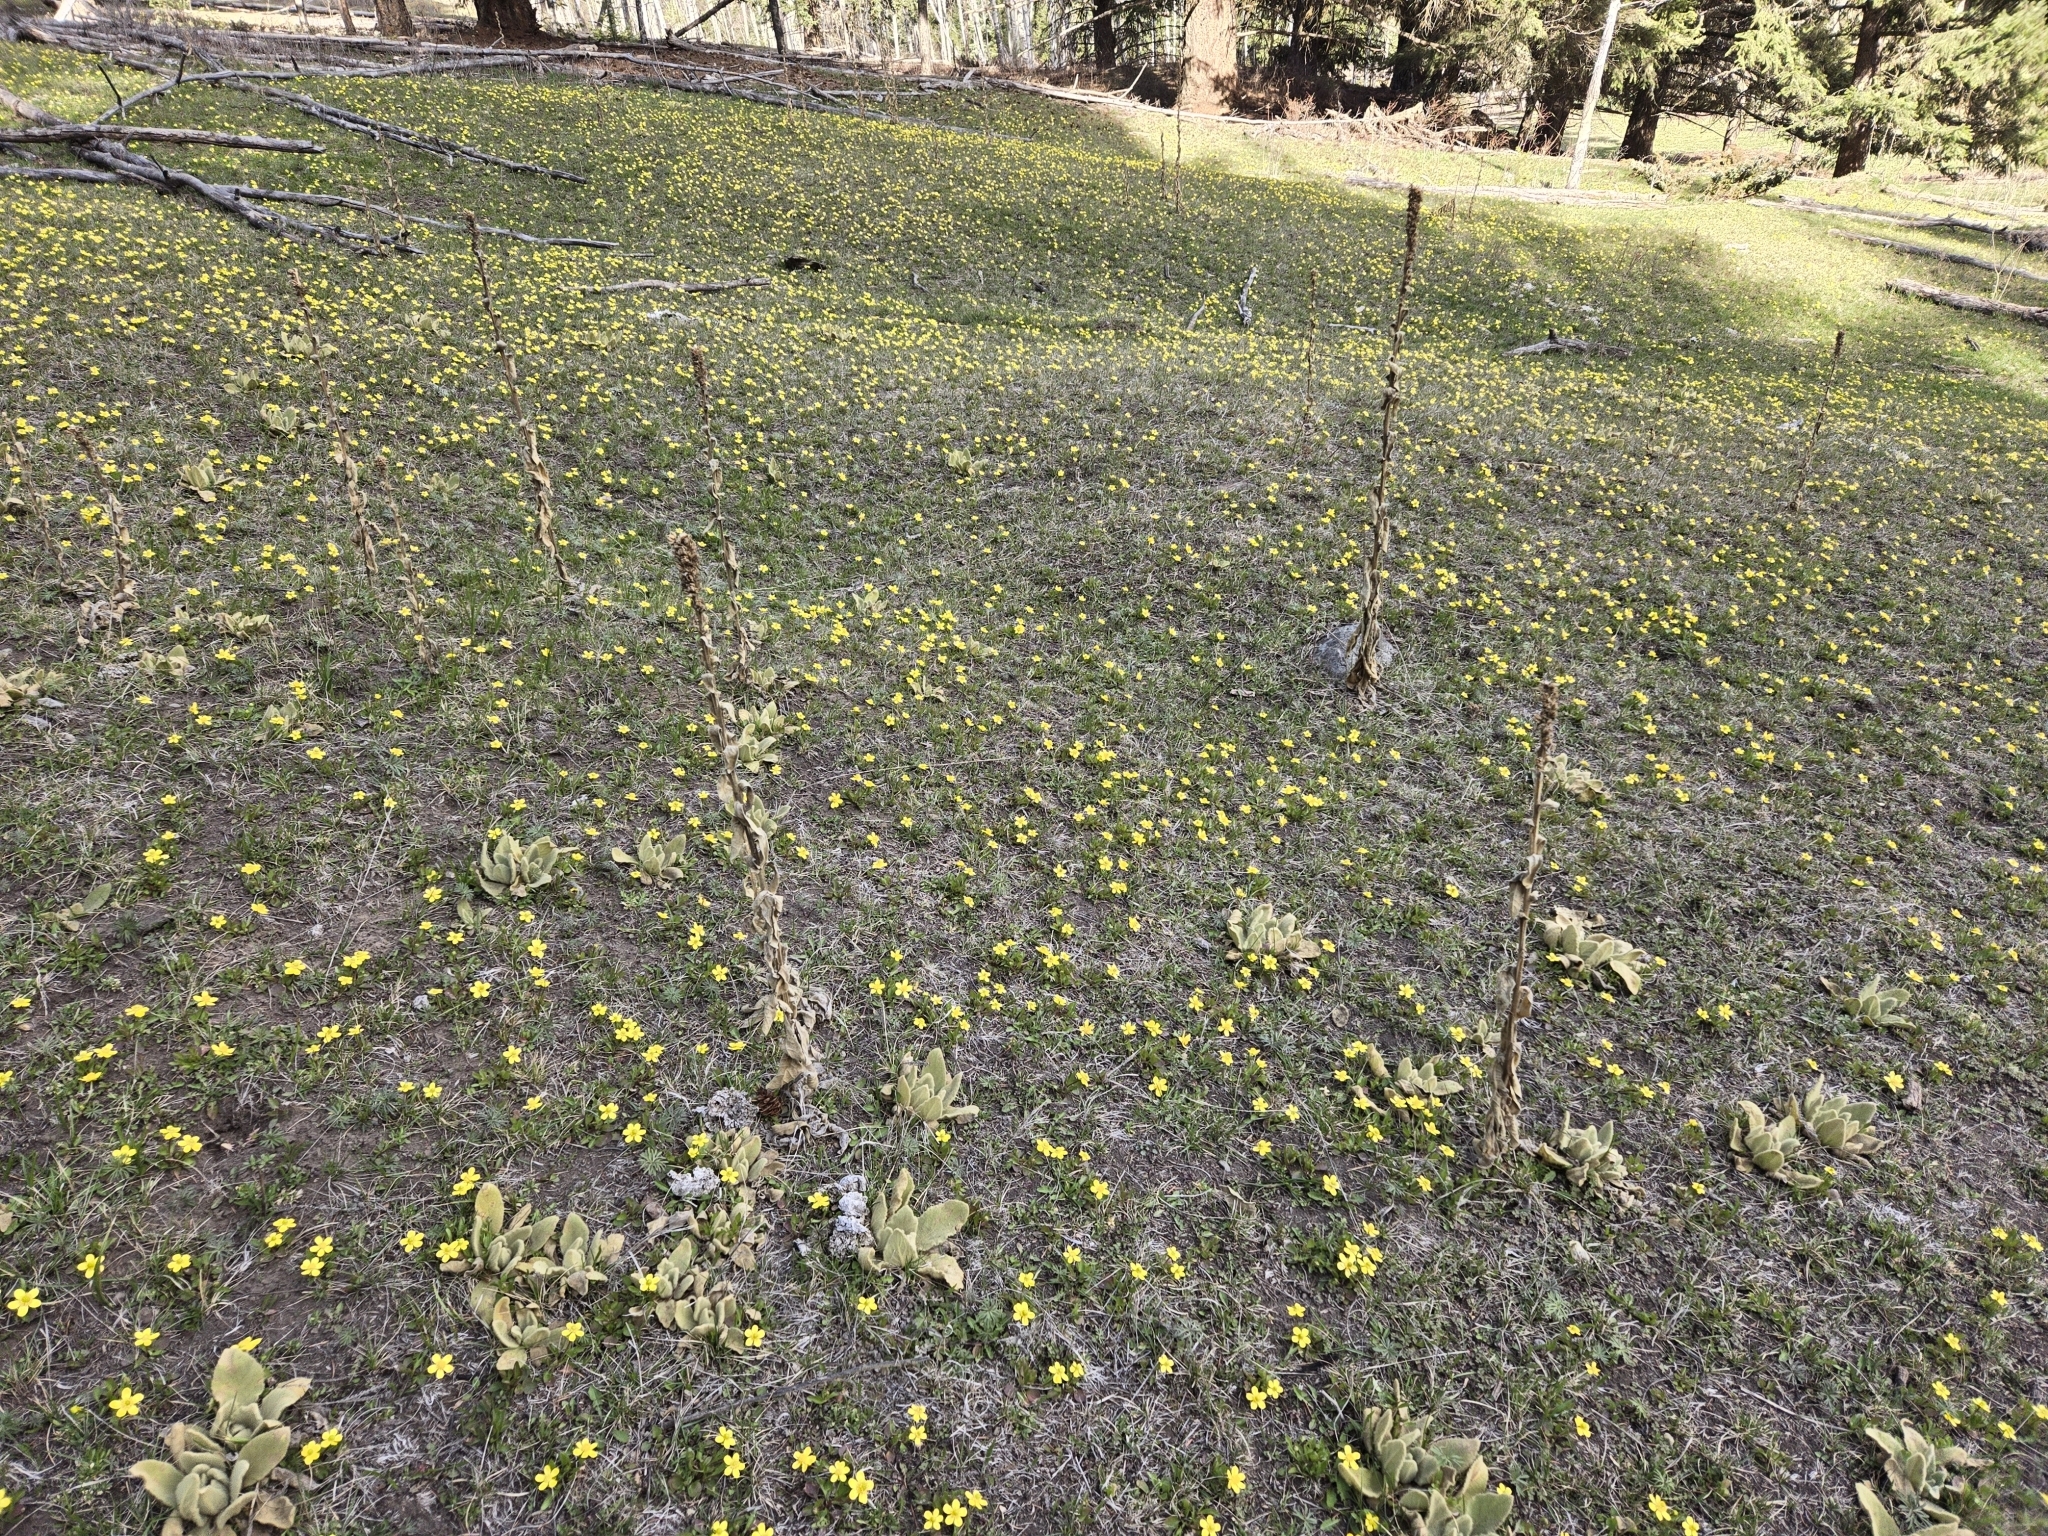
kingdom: Plantae
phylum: Tracheophyta
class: Magnoliopsida
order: Ranunculales
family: Ranunculaceae
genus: Ranunculus
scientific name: Ranunculus glaberrimus
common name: Sagebrush buttercup
